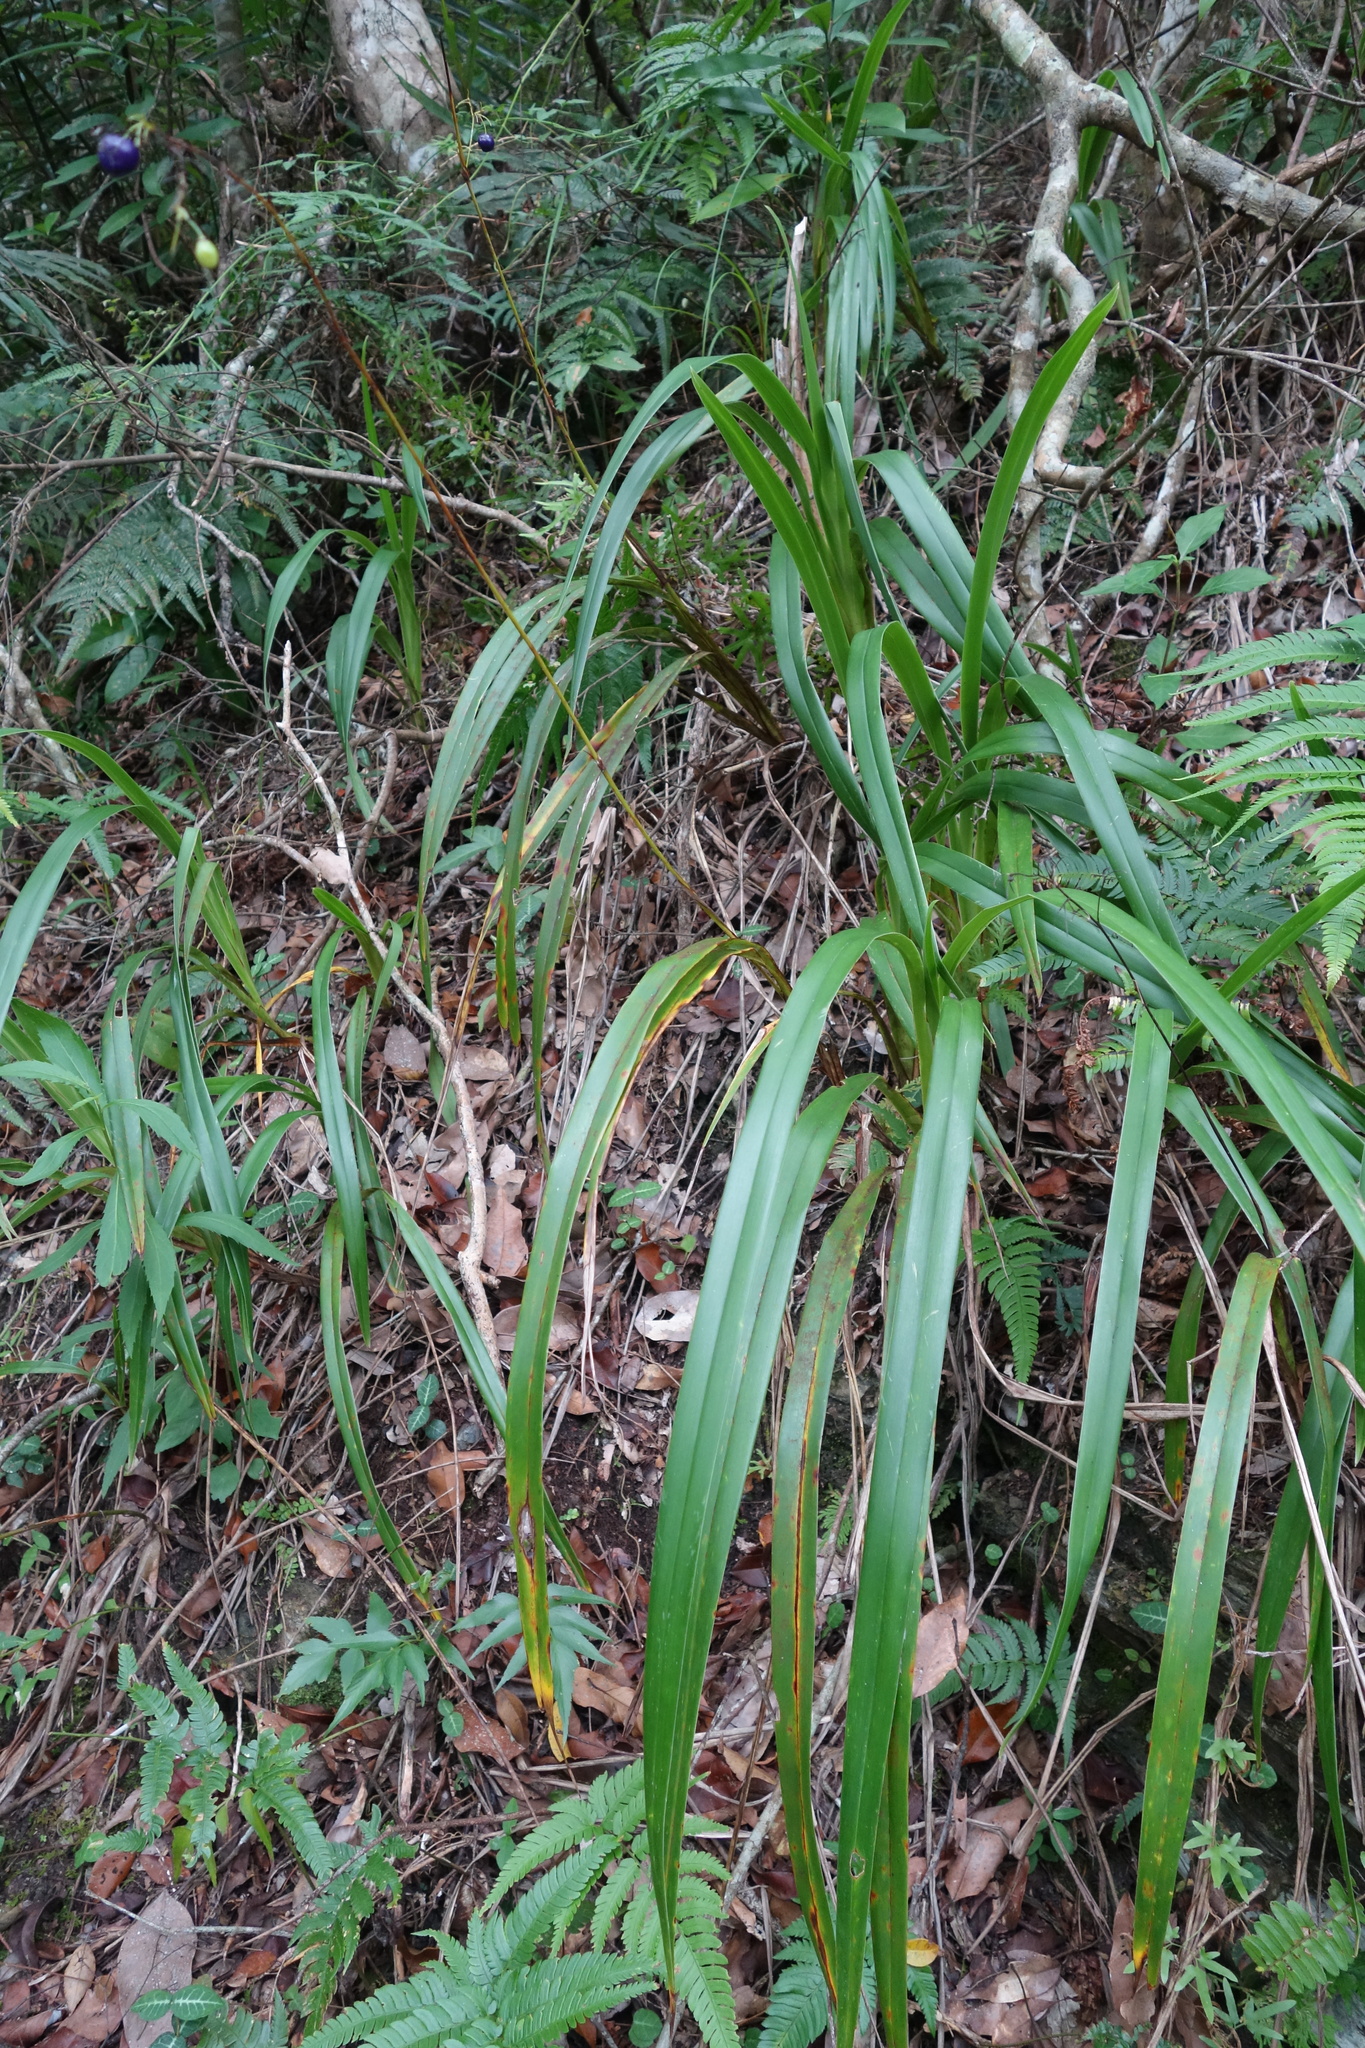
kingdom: Plantae
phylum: Tracheophyta
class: Liliopsida
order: Asparagales
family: Asphodelaceae
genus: Dianella
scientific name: Dianella ensifolia
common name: New zealand lilyplant
